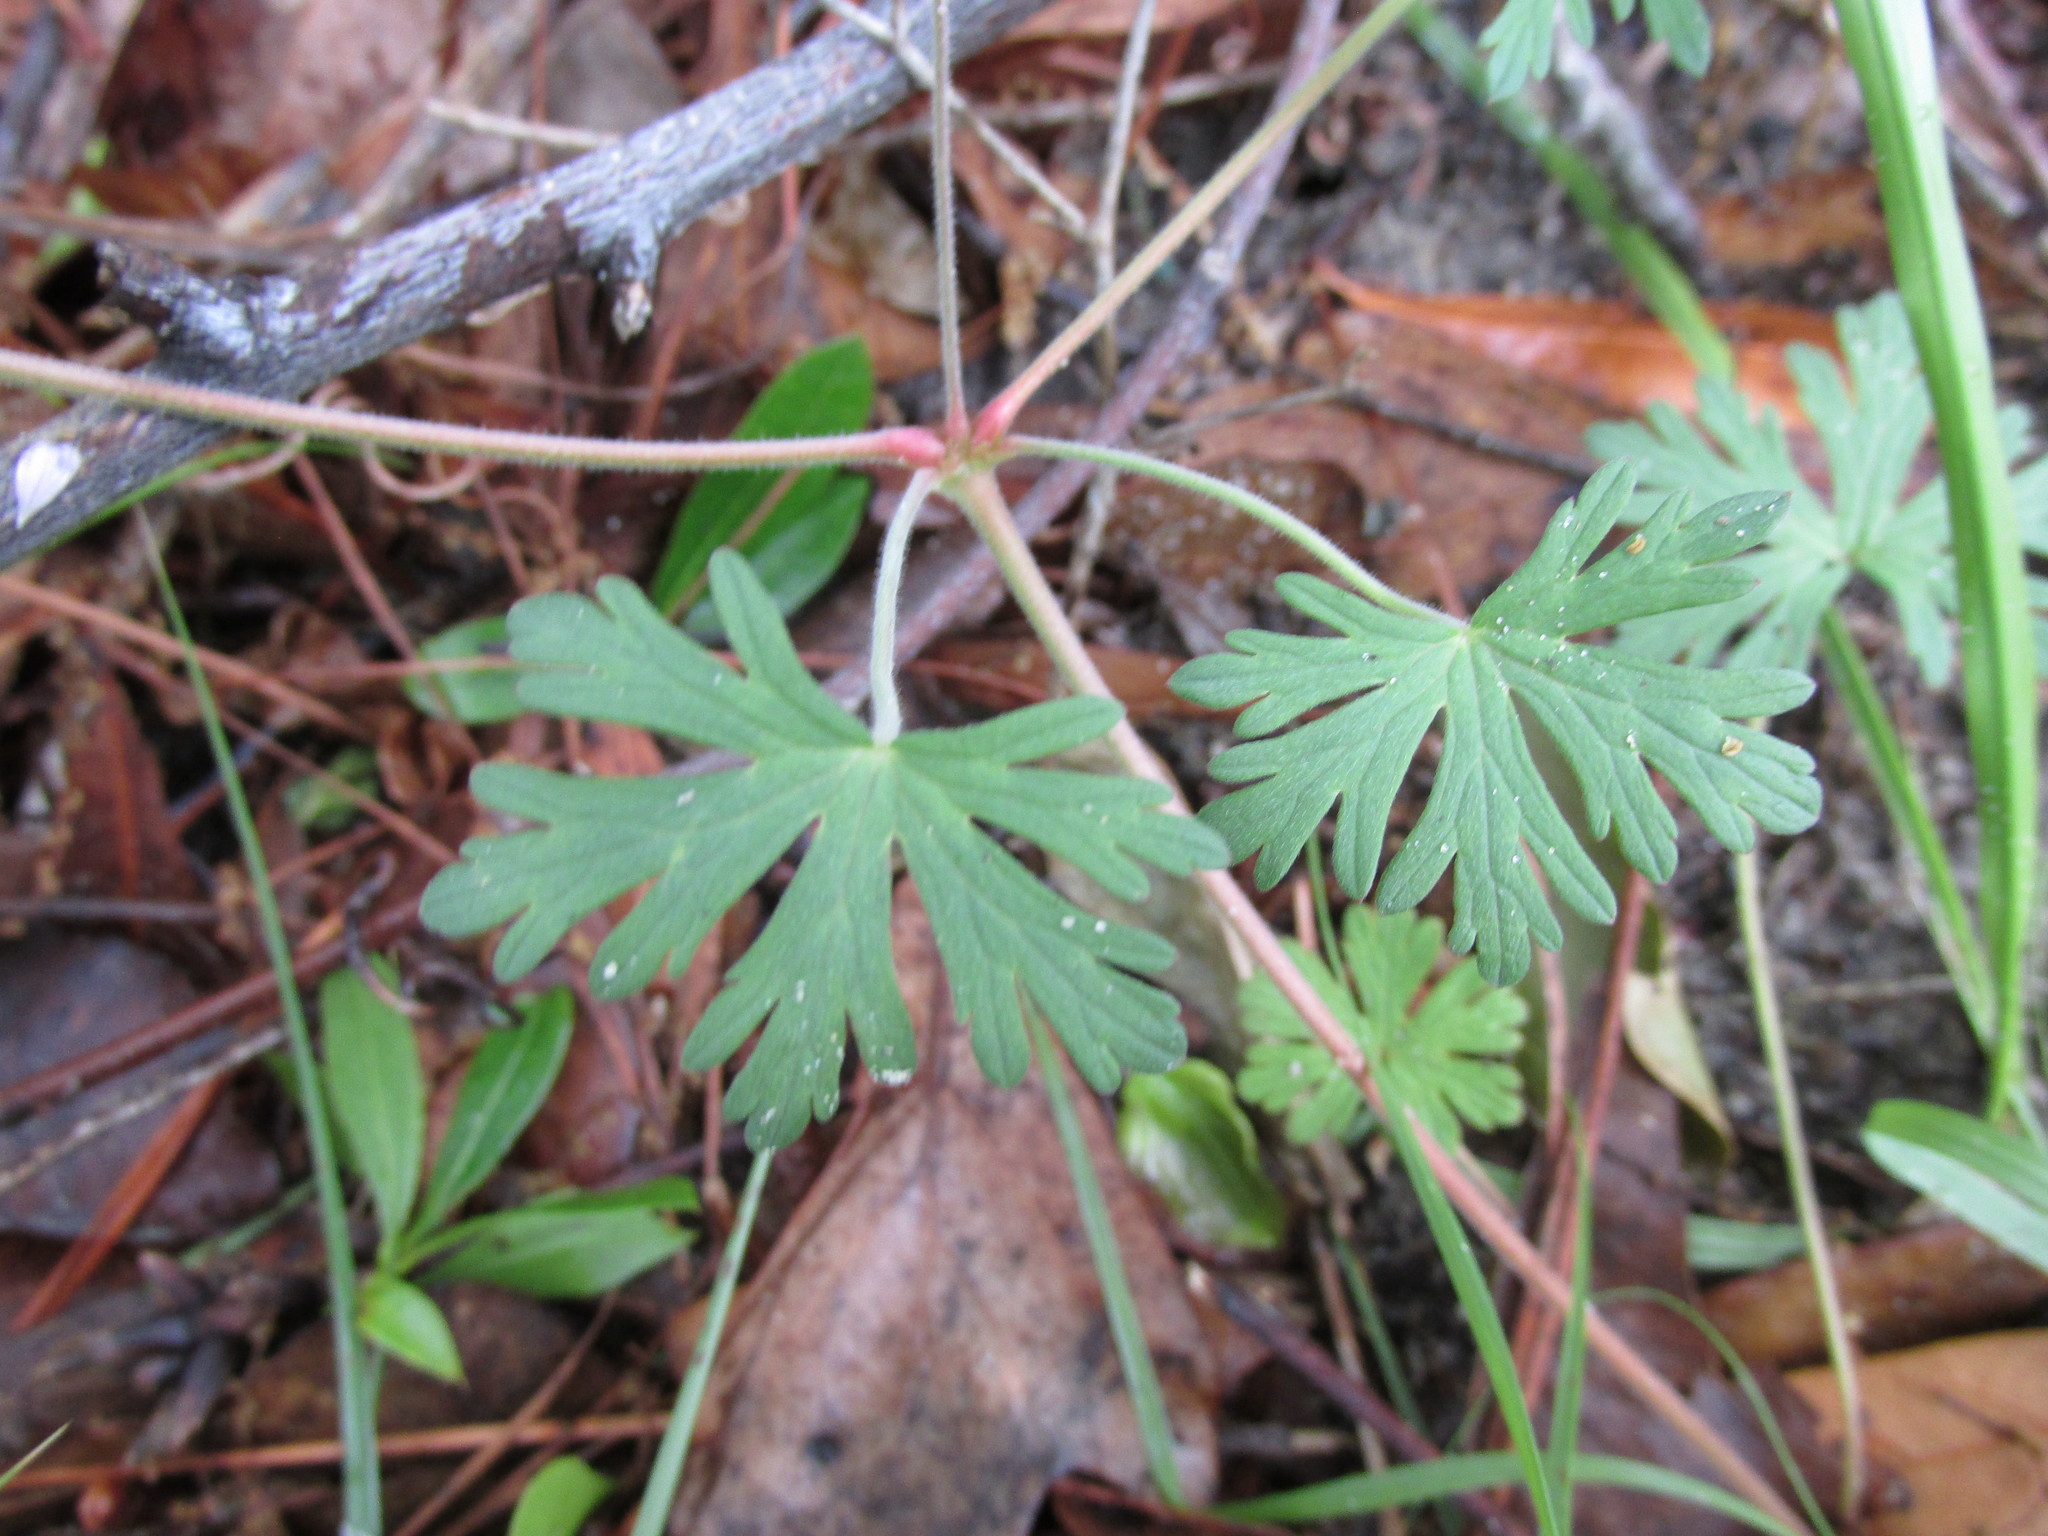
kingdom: Plantae
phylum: Tracheophyta
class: Magnoliopsida
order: Geraniales
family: Geraniaceae
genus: Geranium
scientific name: Geranium carolinianum
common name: Carolina crane's-bill
